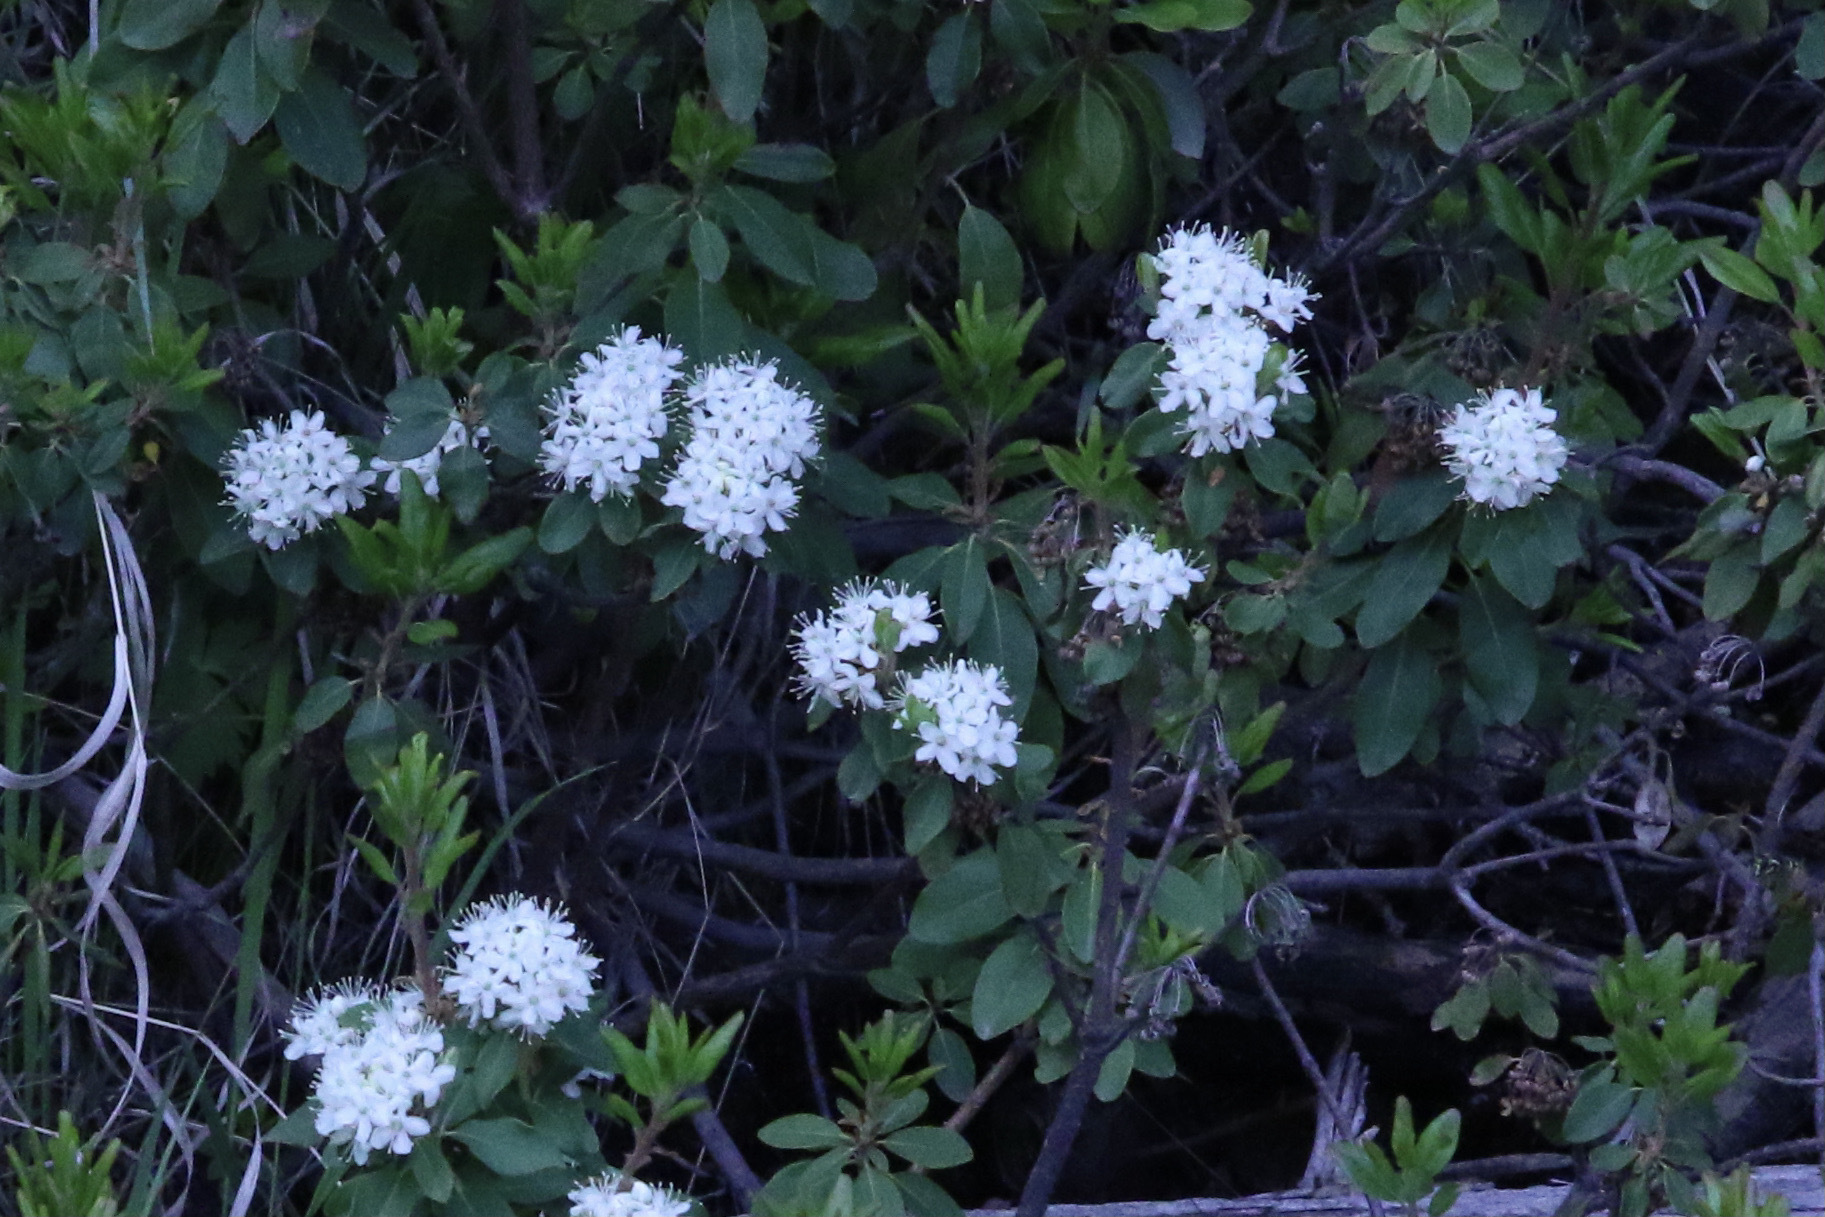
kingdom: Plantae
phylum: Tracheophyta
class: Magnoliopsida
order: Ericales
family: Ericaceae
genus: Rhododendron
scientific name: Rhododendron columbianum
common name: Western labrador tea
